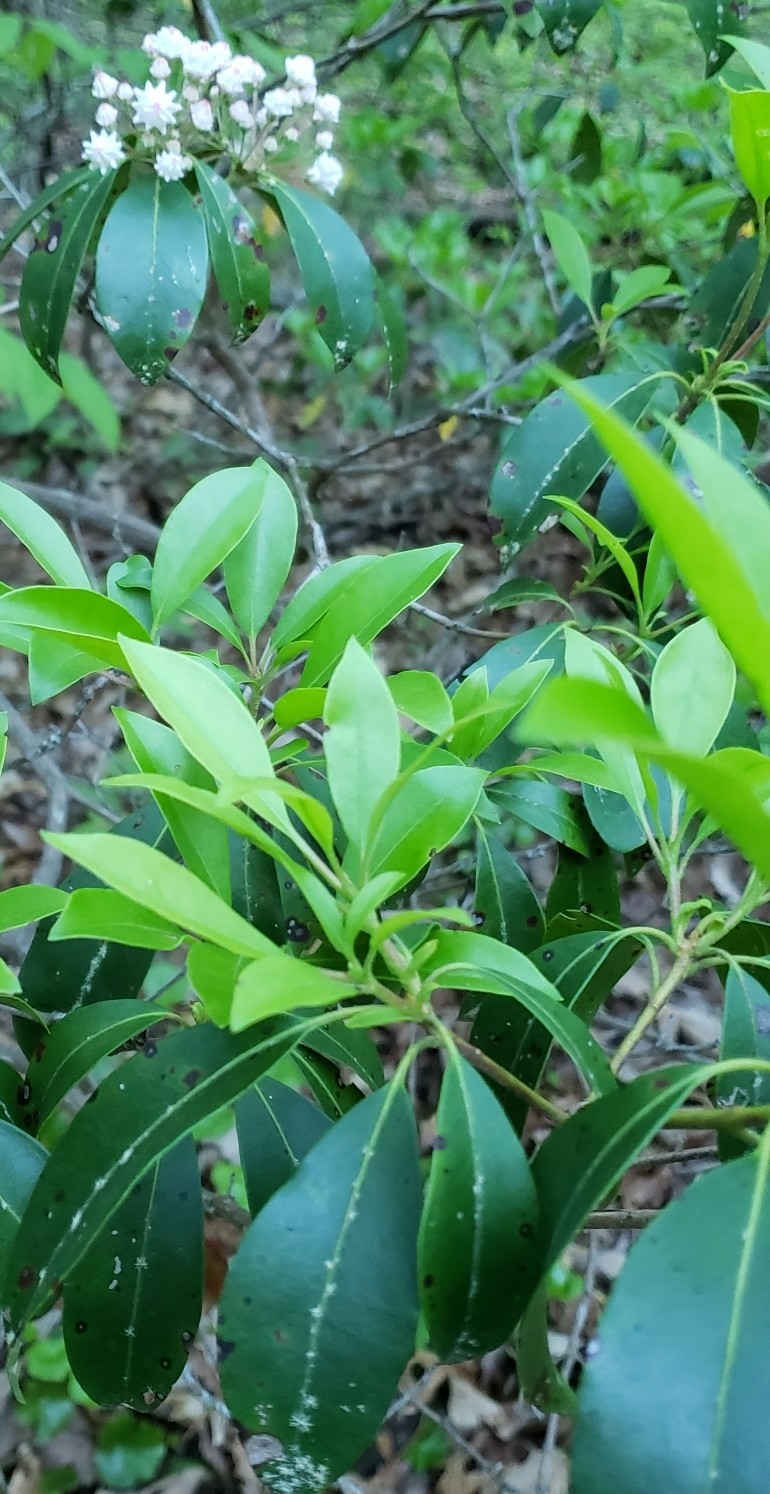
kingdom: Plantae
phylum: Tracheophyta
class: Magnoliopsida
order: Ericales
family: Ericaceae
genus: Kalmia
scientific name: Kalmia latifolia
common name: Mountain-laurel
